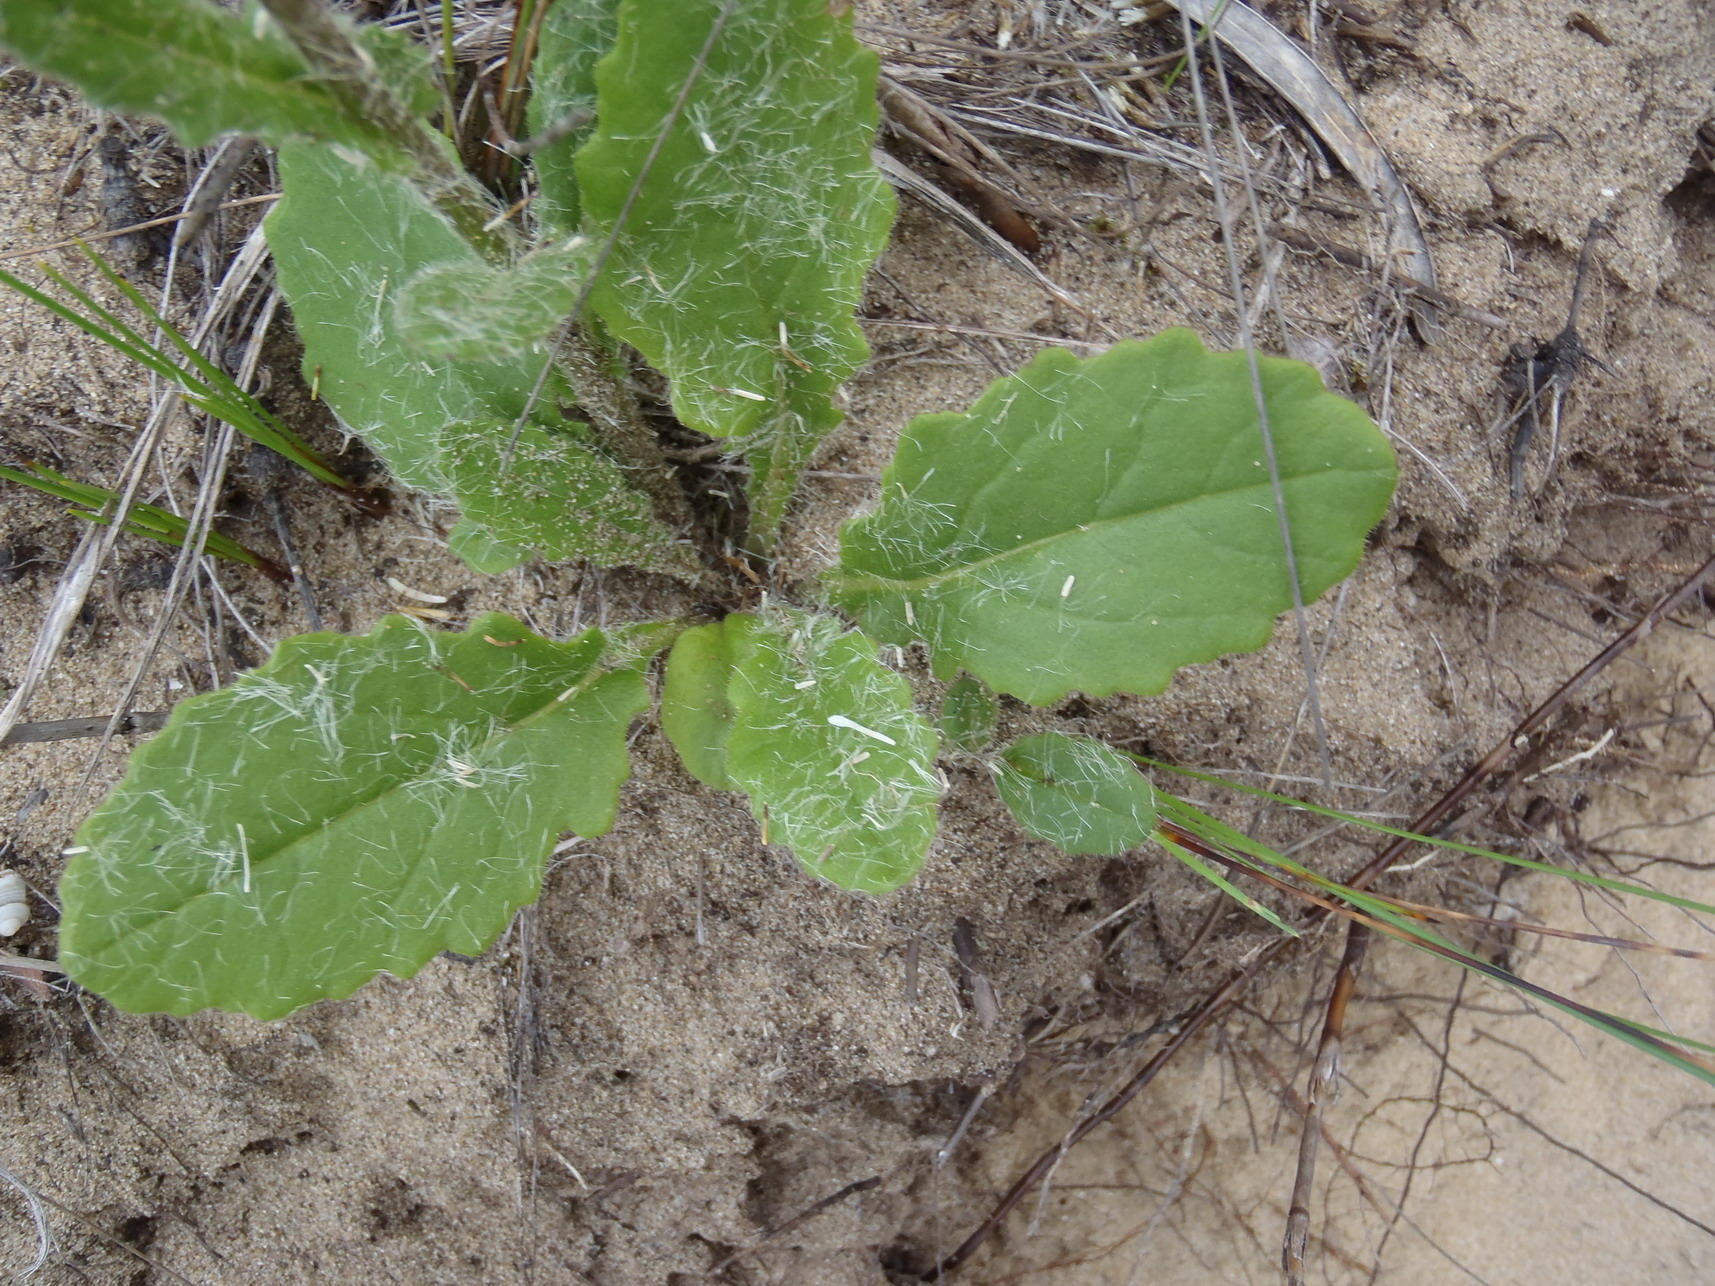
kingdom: Plantae
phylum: Tracheophyta
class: Magnoliopsida
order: Asterales
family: Asteraceae
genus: Senecio
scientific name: Senecio erubescens
